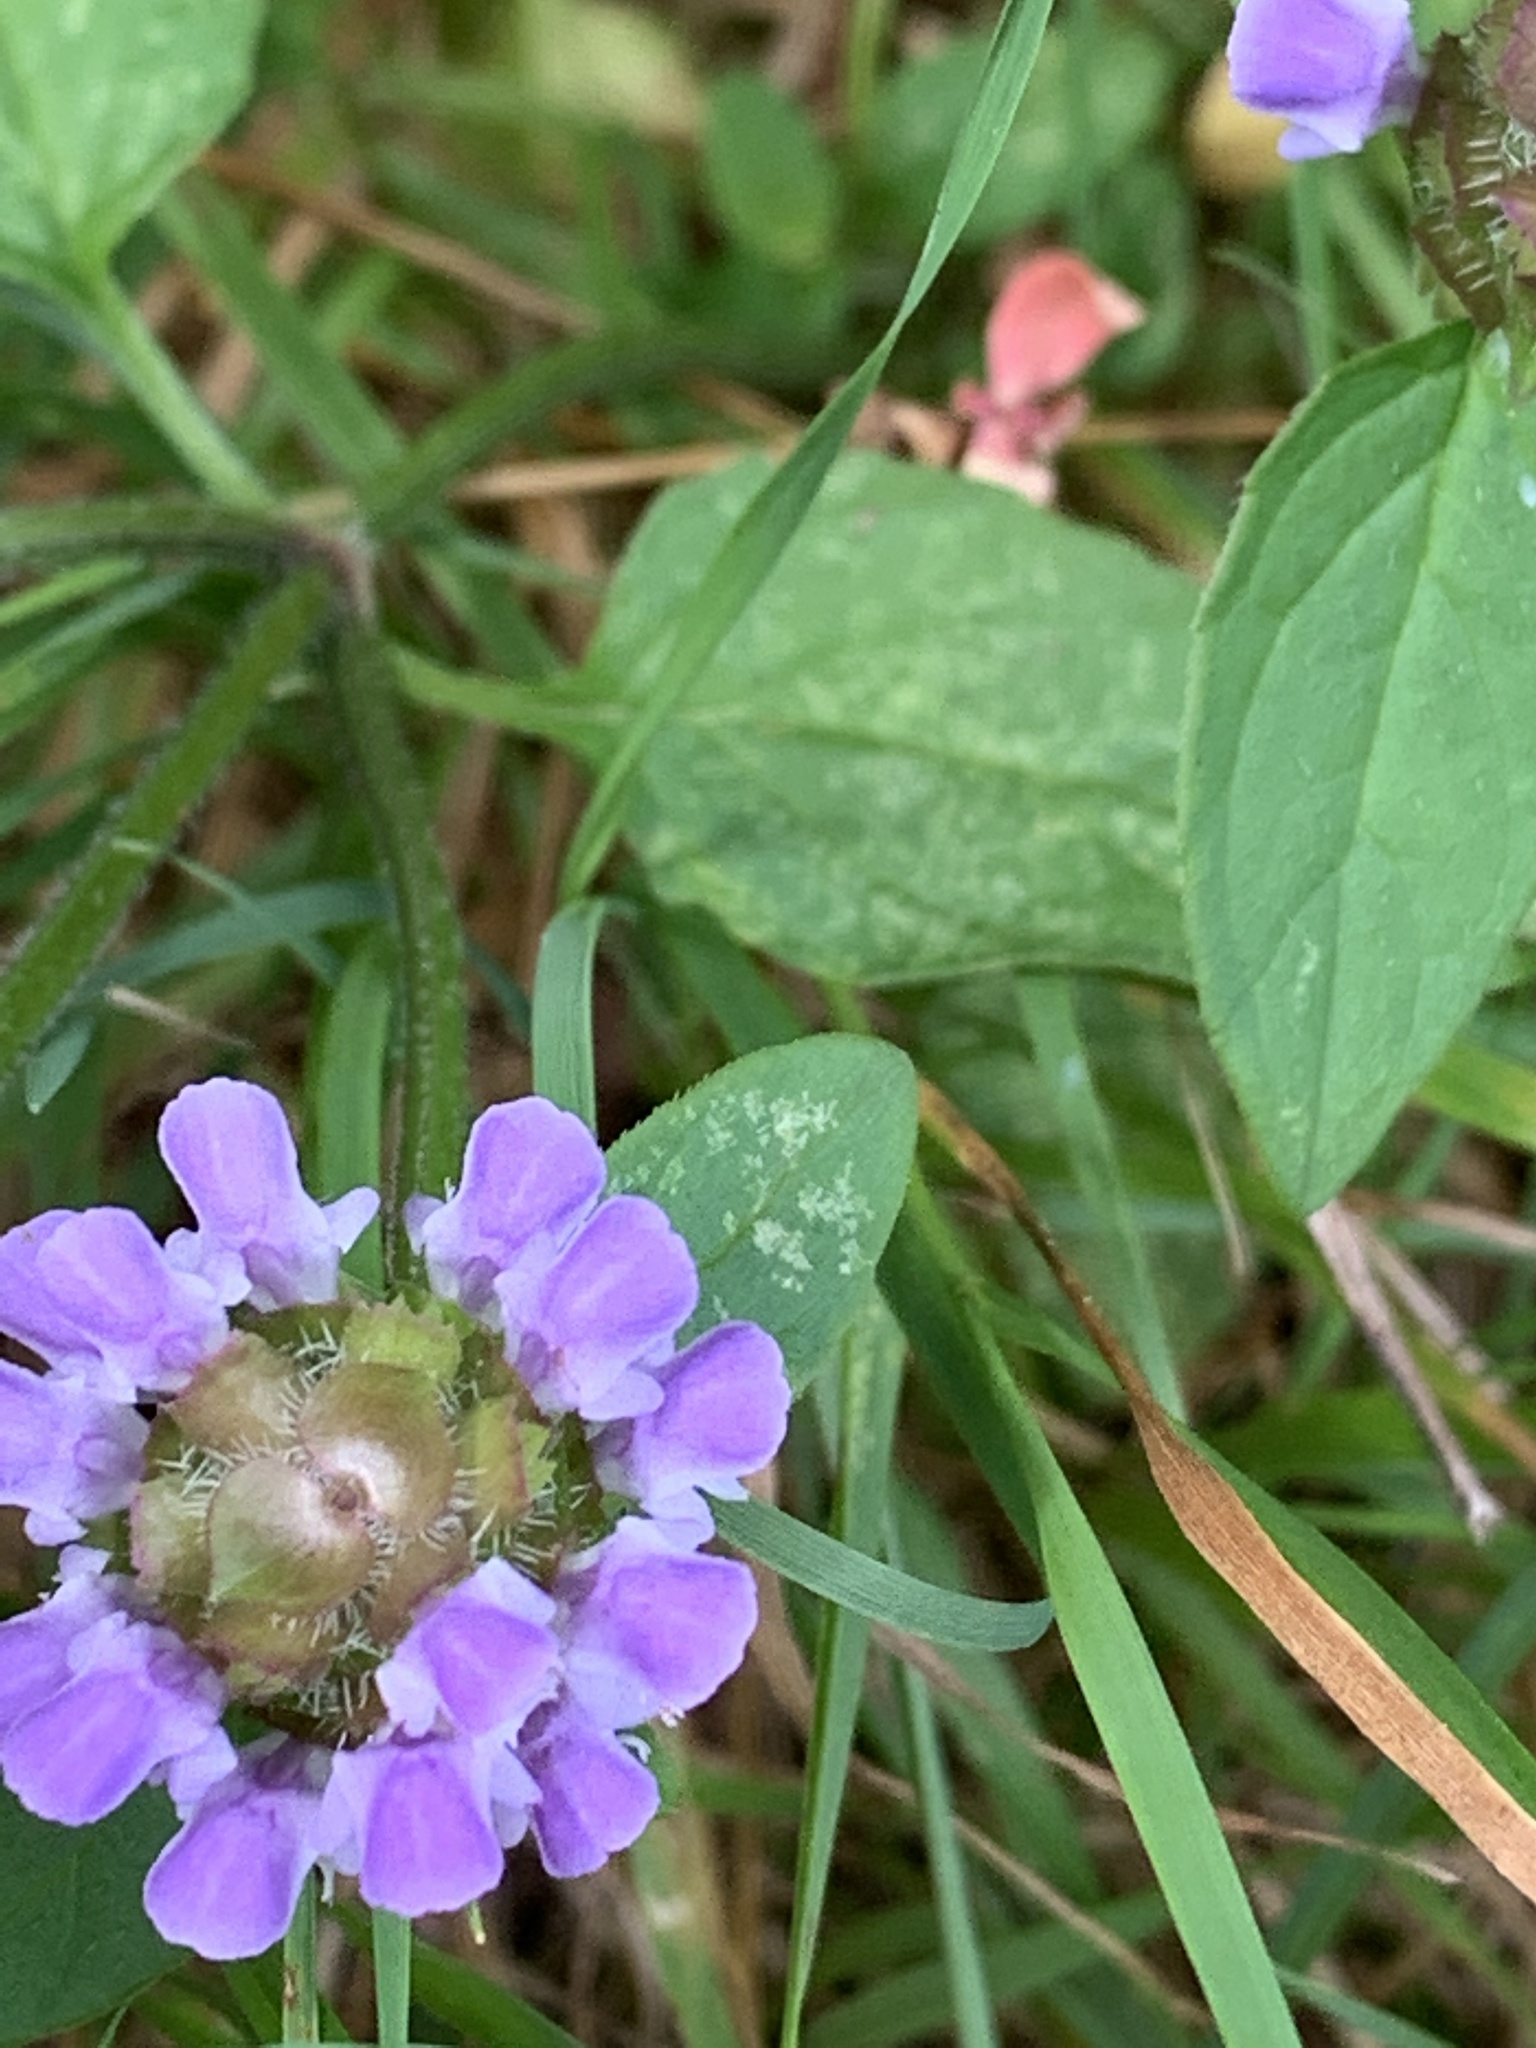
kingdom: Plantae
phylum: Tracheophyta
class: Magnoliopsida
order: Lamiales
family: Lamiaceae
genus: Prunella
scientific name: Prunella vulgaris
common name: Heal-all
